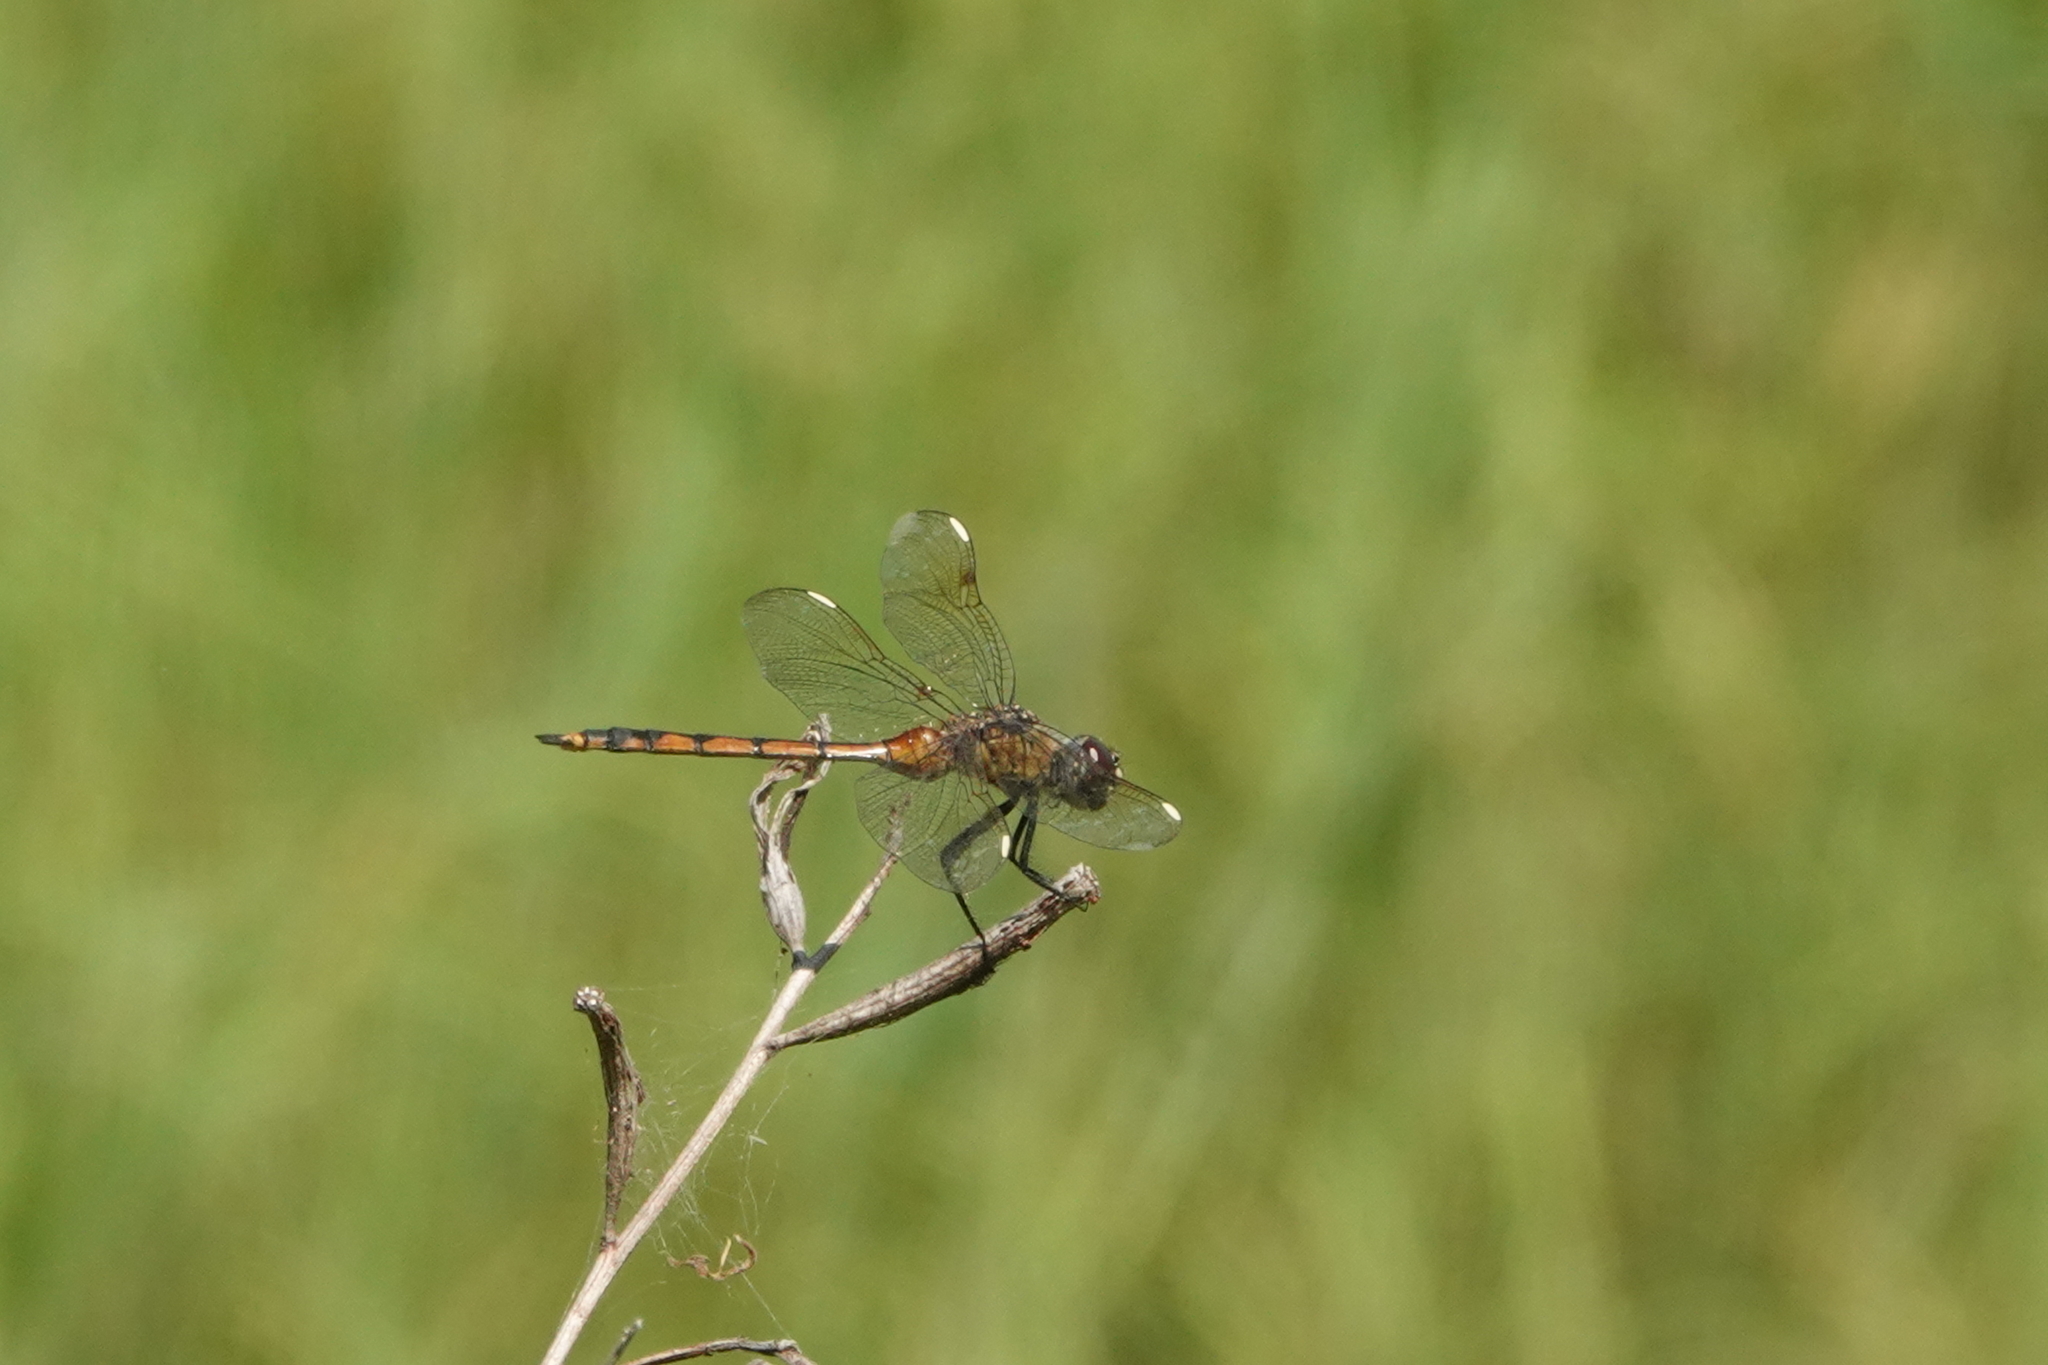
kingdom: Animalia
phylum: Arthropoda
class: Insecta
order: Odonata
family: Libellulidae
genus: Brachymesia
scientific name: Brachymesia gravida
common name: Four-spotted pennant
